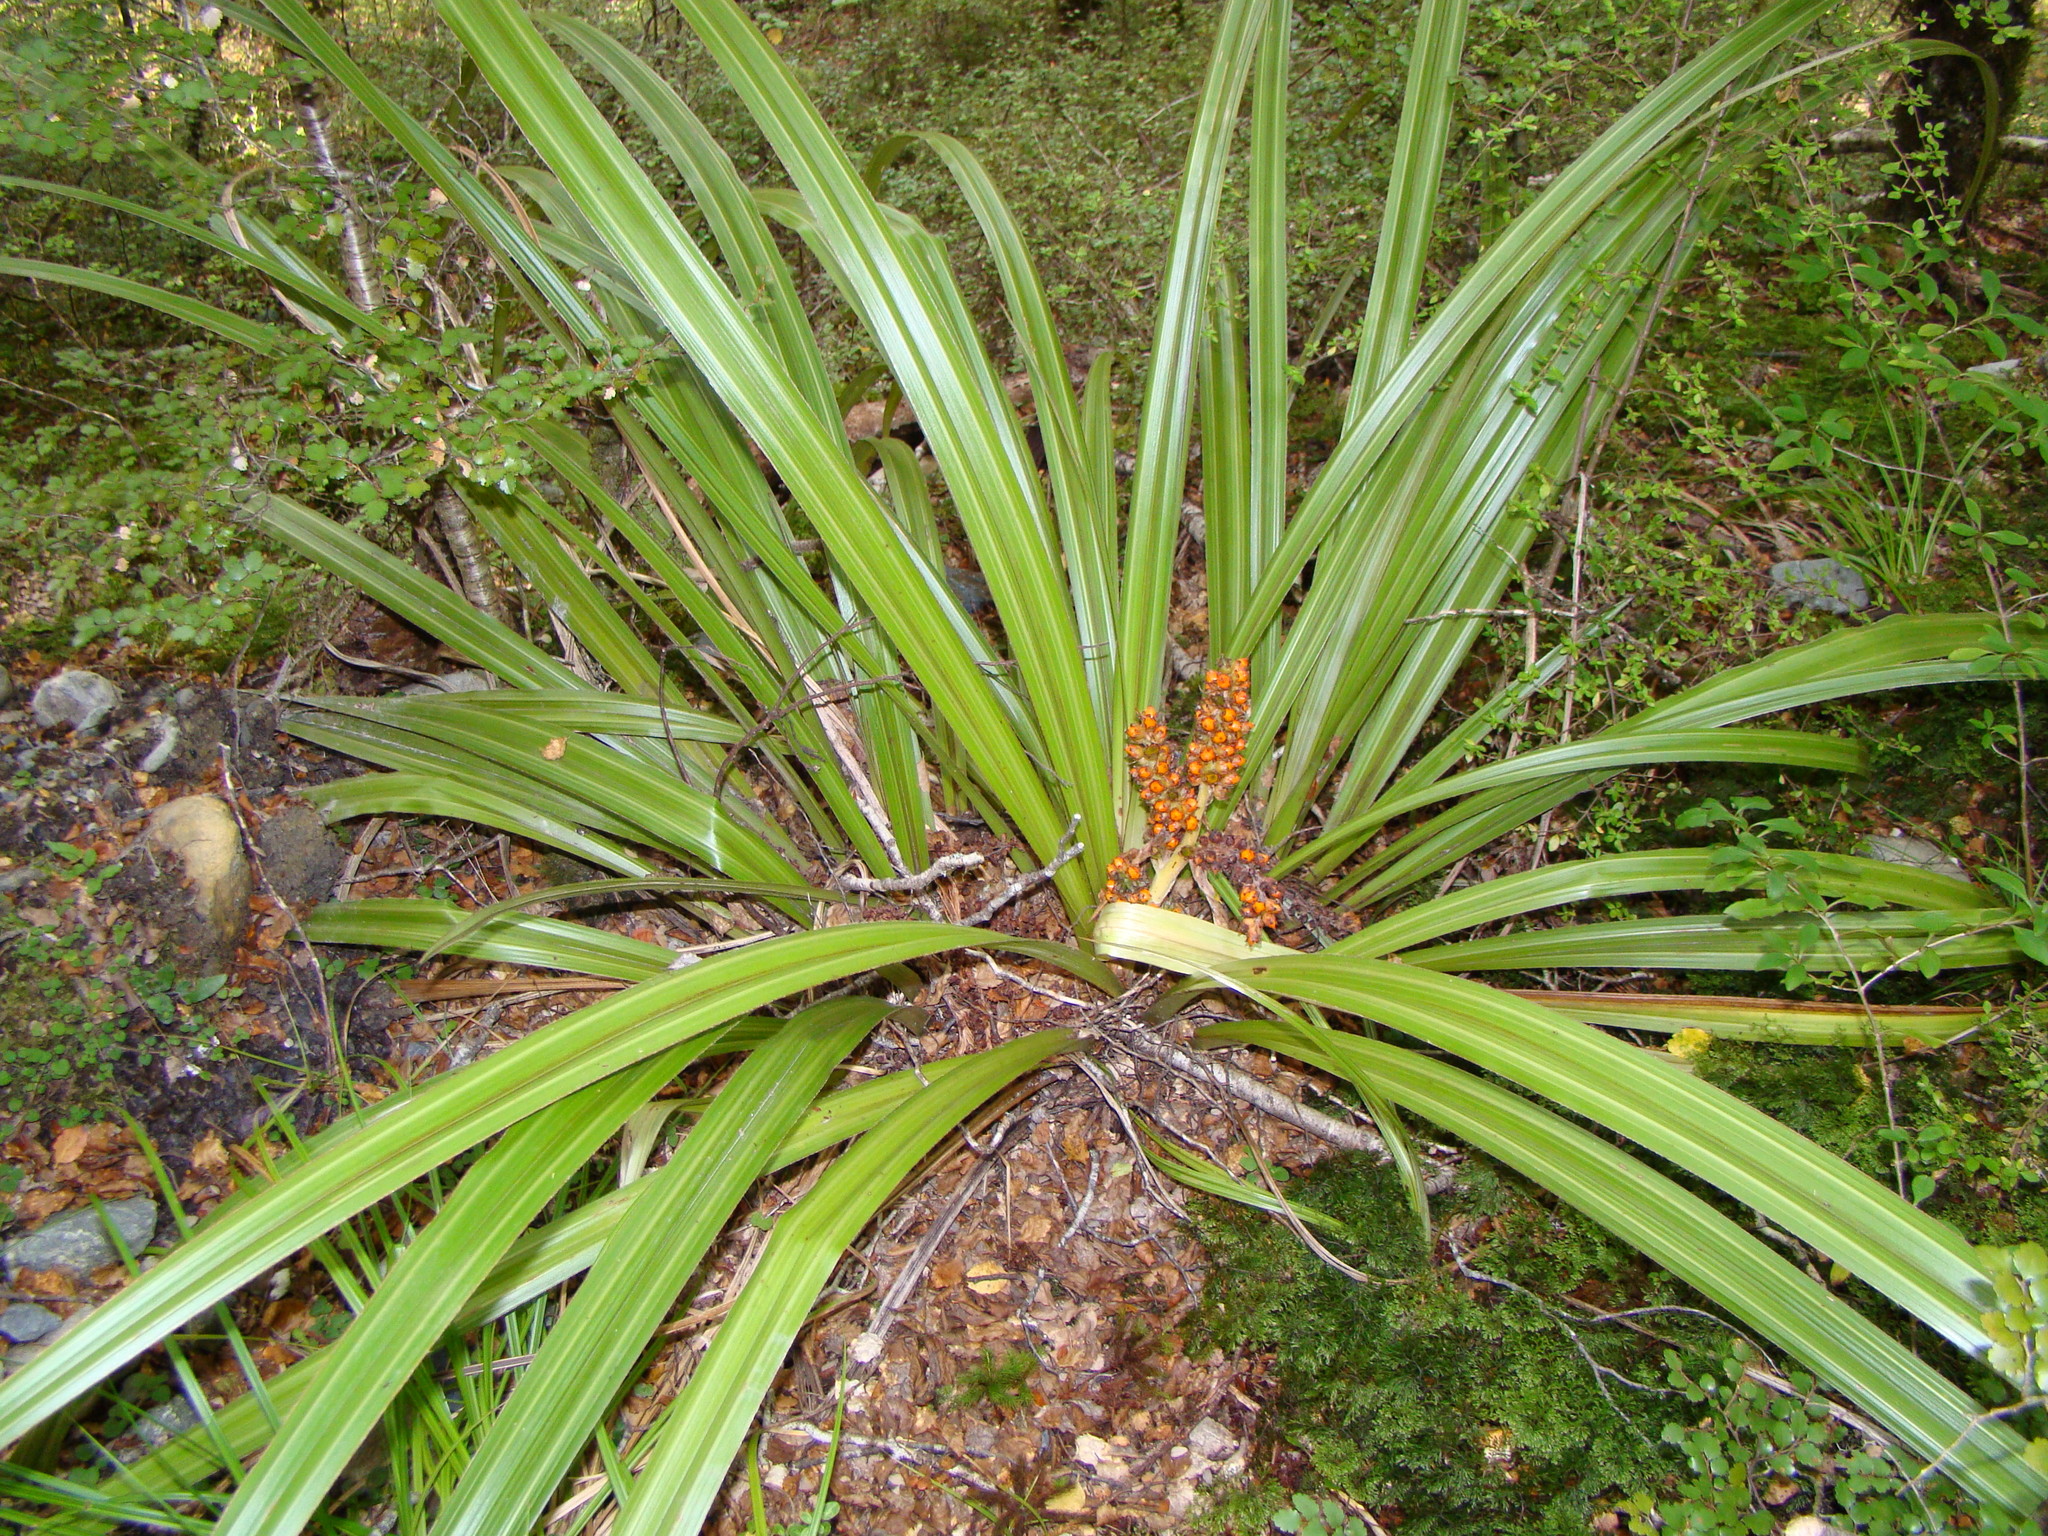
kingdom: Plantae
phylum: Tracheophyta
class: Liliopsida
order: Asparagales
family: Asteliaceae
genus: Astelia
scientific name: Astelia fragrans
